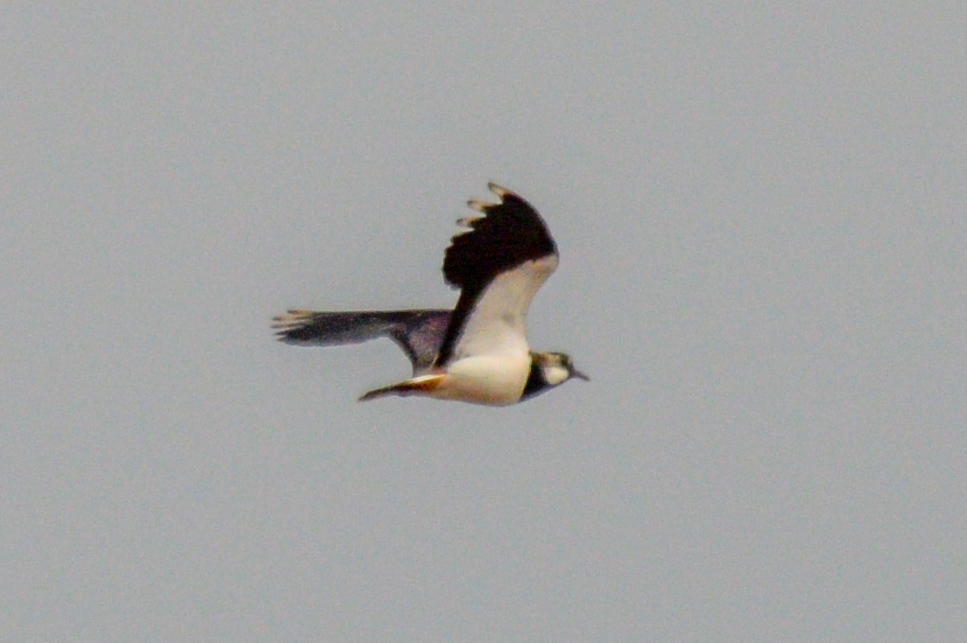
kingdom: Animalia
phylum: Chordata
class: Aves
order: Charadriiformes
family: Charadriidae
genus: Vanellus
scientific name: Vanellus vanellus
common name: Northern lapwing
